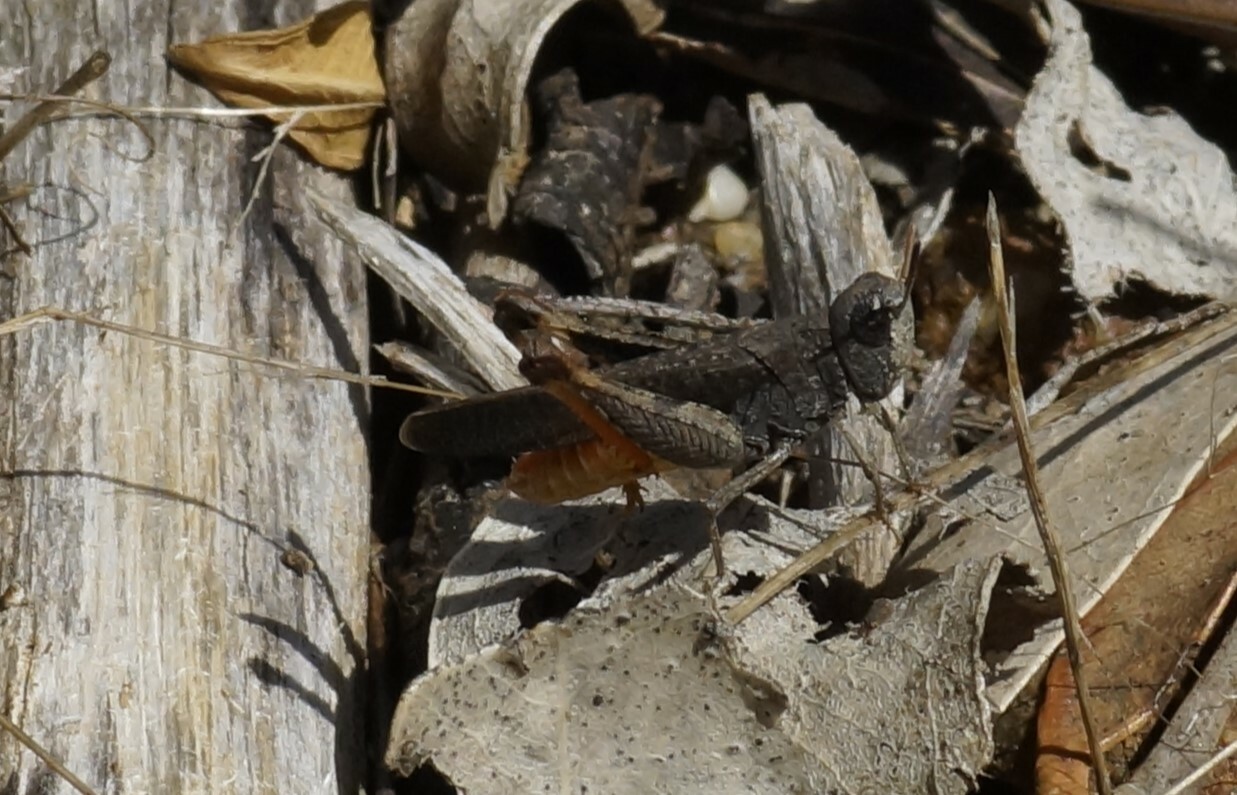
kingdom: Animalia
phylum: Arthropoda
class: Insecta
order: Orthoptera
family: Acrididae
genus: Cryptobothrus
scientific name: Cryptobothrus chrysophorus
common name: Golden bandwing
